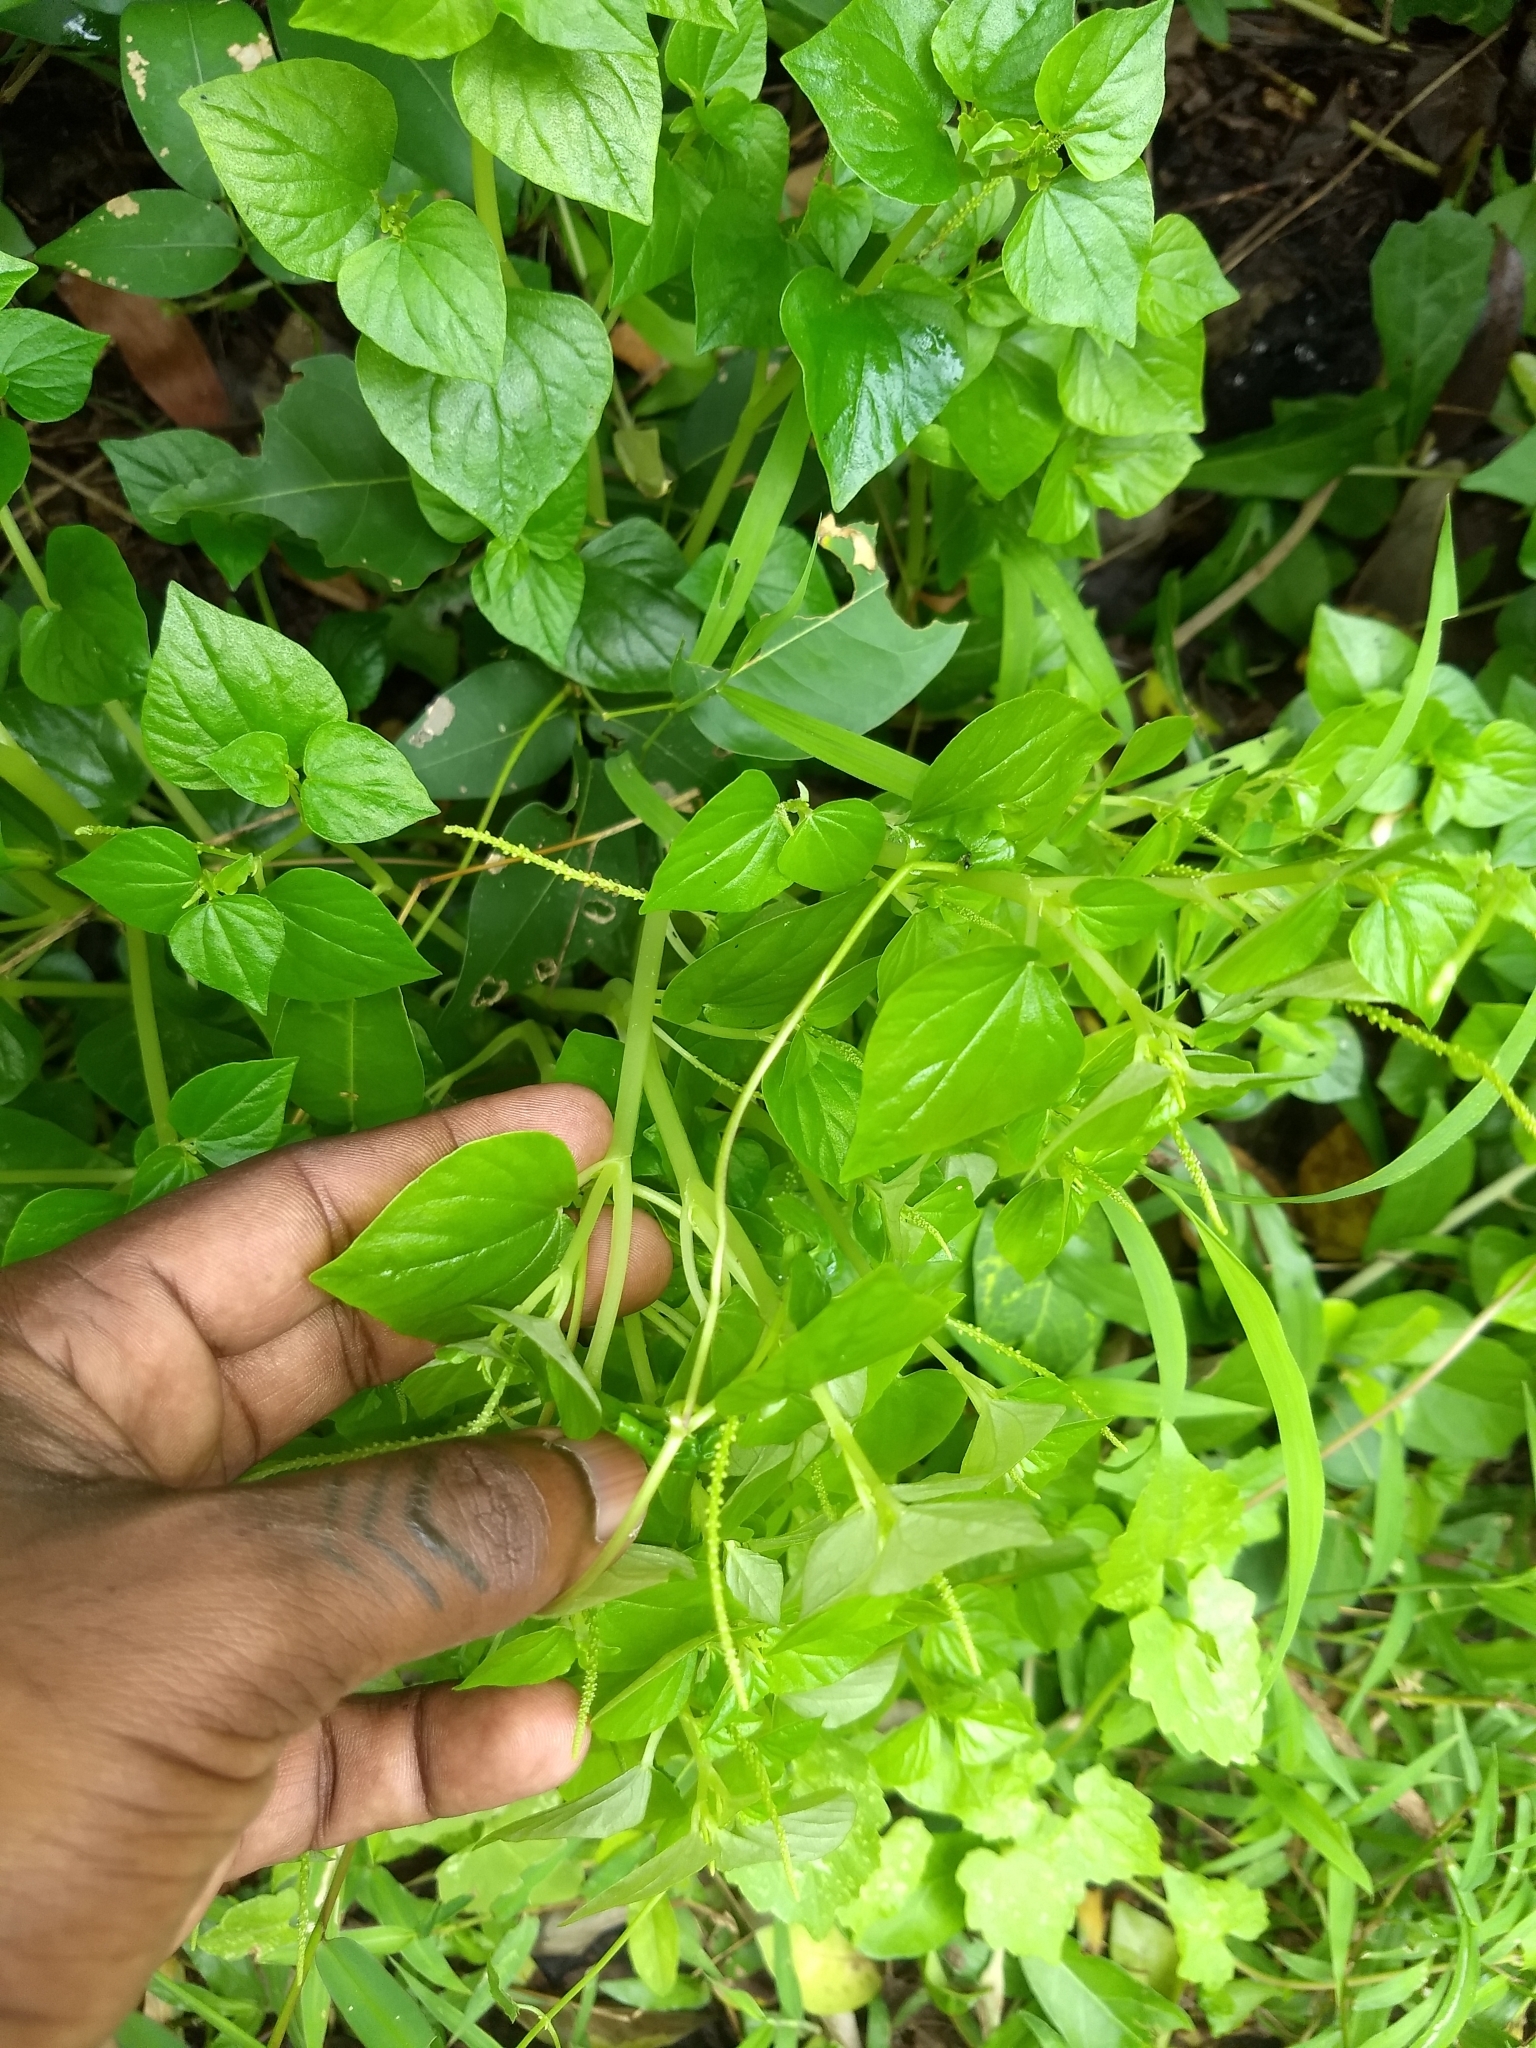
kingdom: Plantae
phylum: Tracheophyta
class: Magnoliopsida
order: Piperales
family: Piperaceae
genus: Peperomia
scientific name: Peperomia pellucida
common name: Man to man
